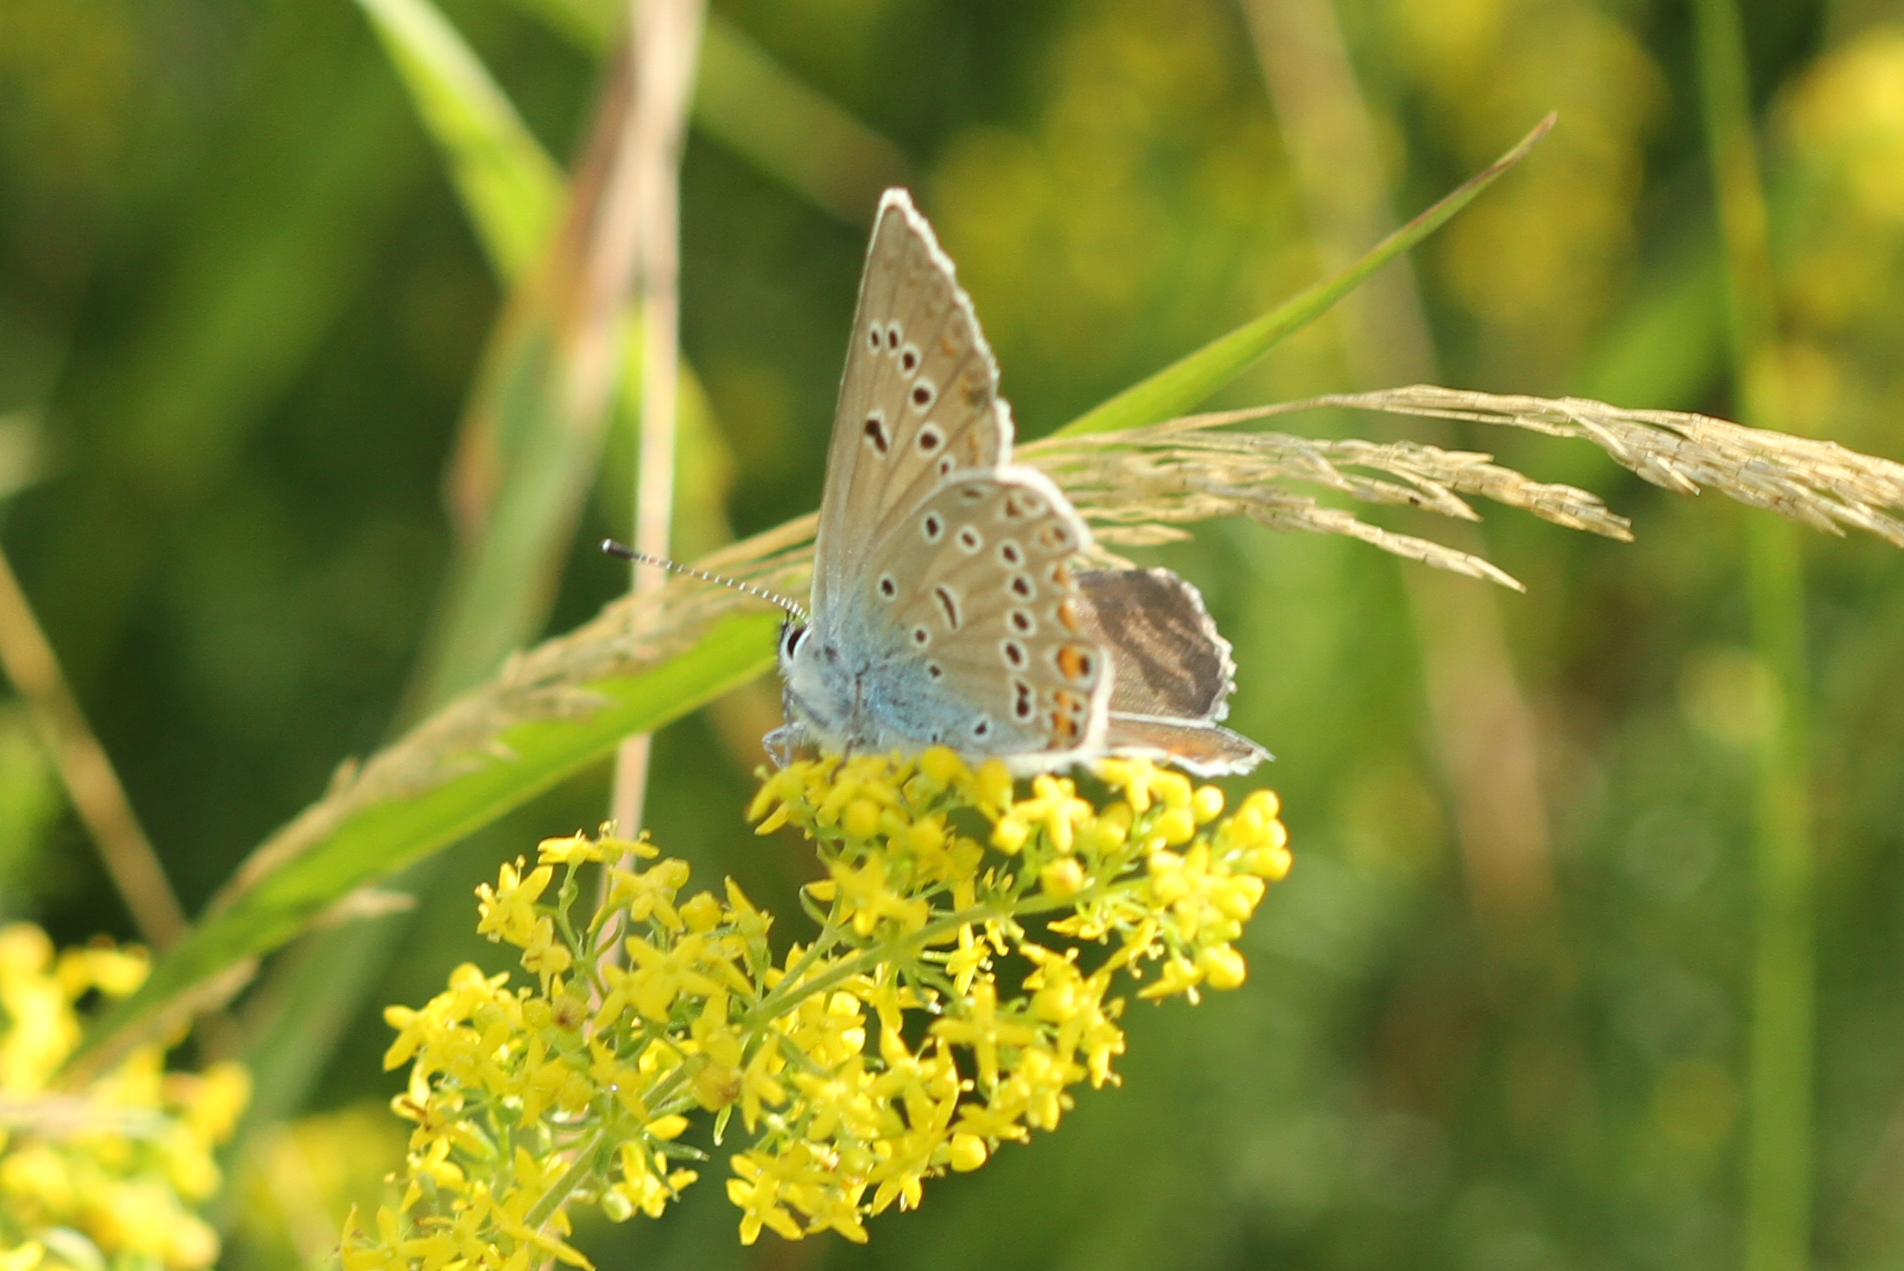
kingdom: Animalia
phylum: Arthropoda
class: Insecta
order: Lepidoptera
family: Lycaenidae
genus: Plebejus
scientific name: Plebejus amanda
